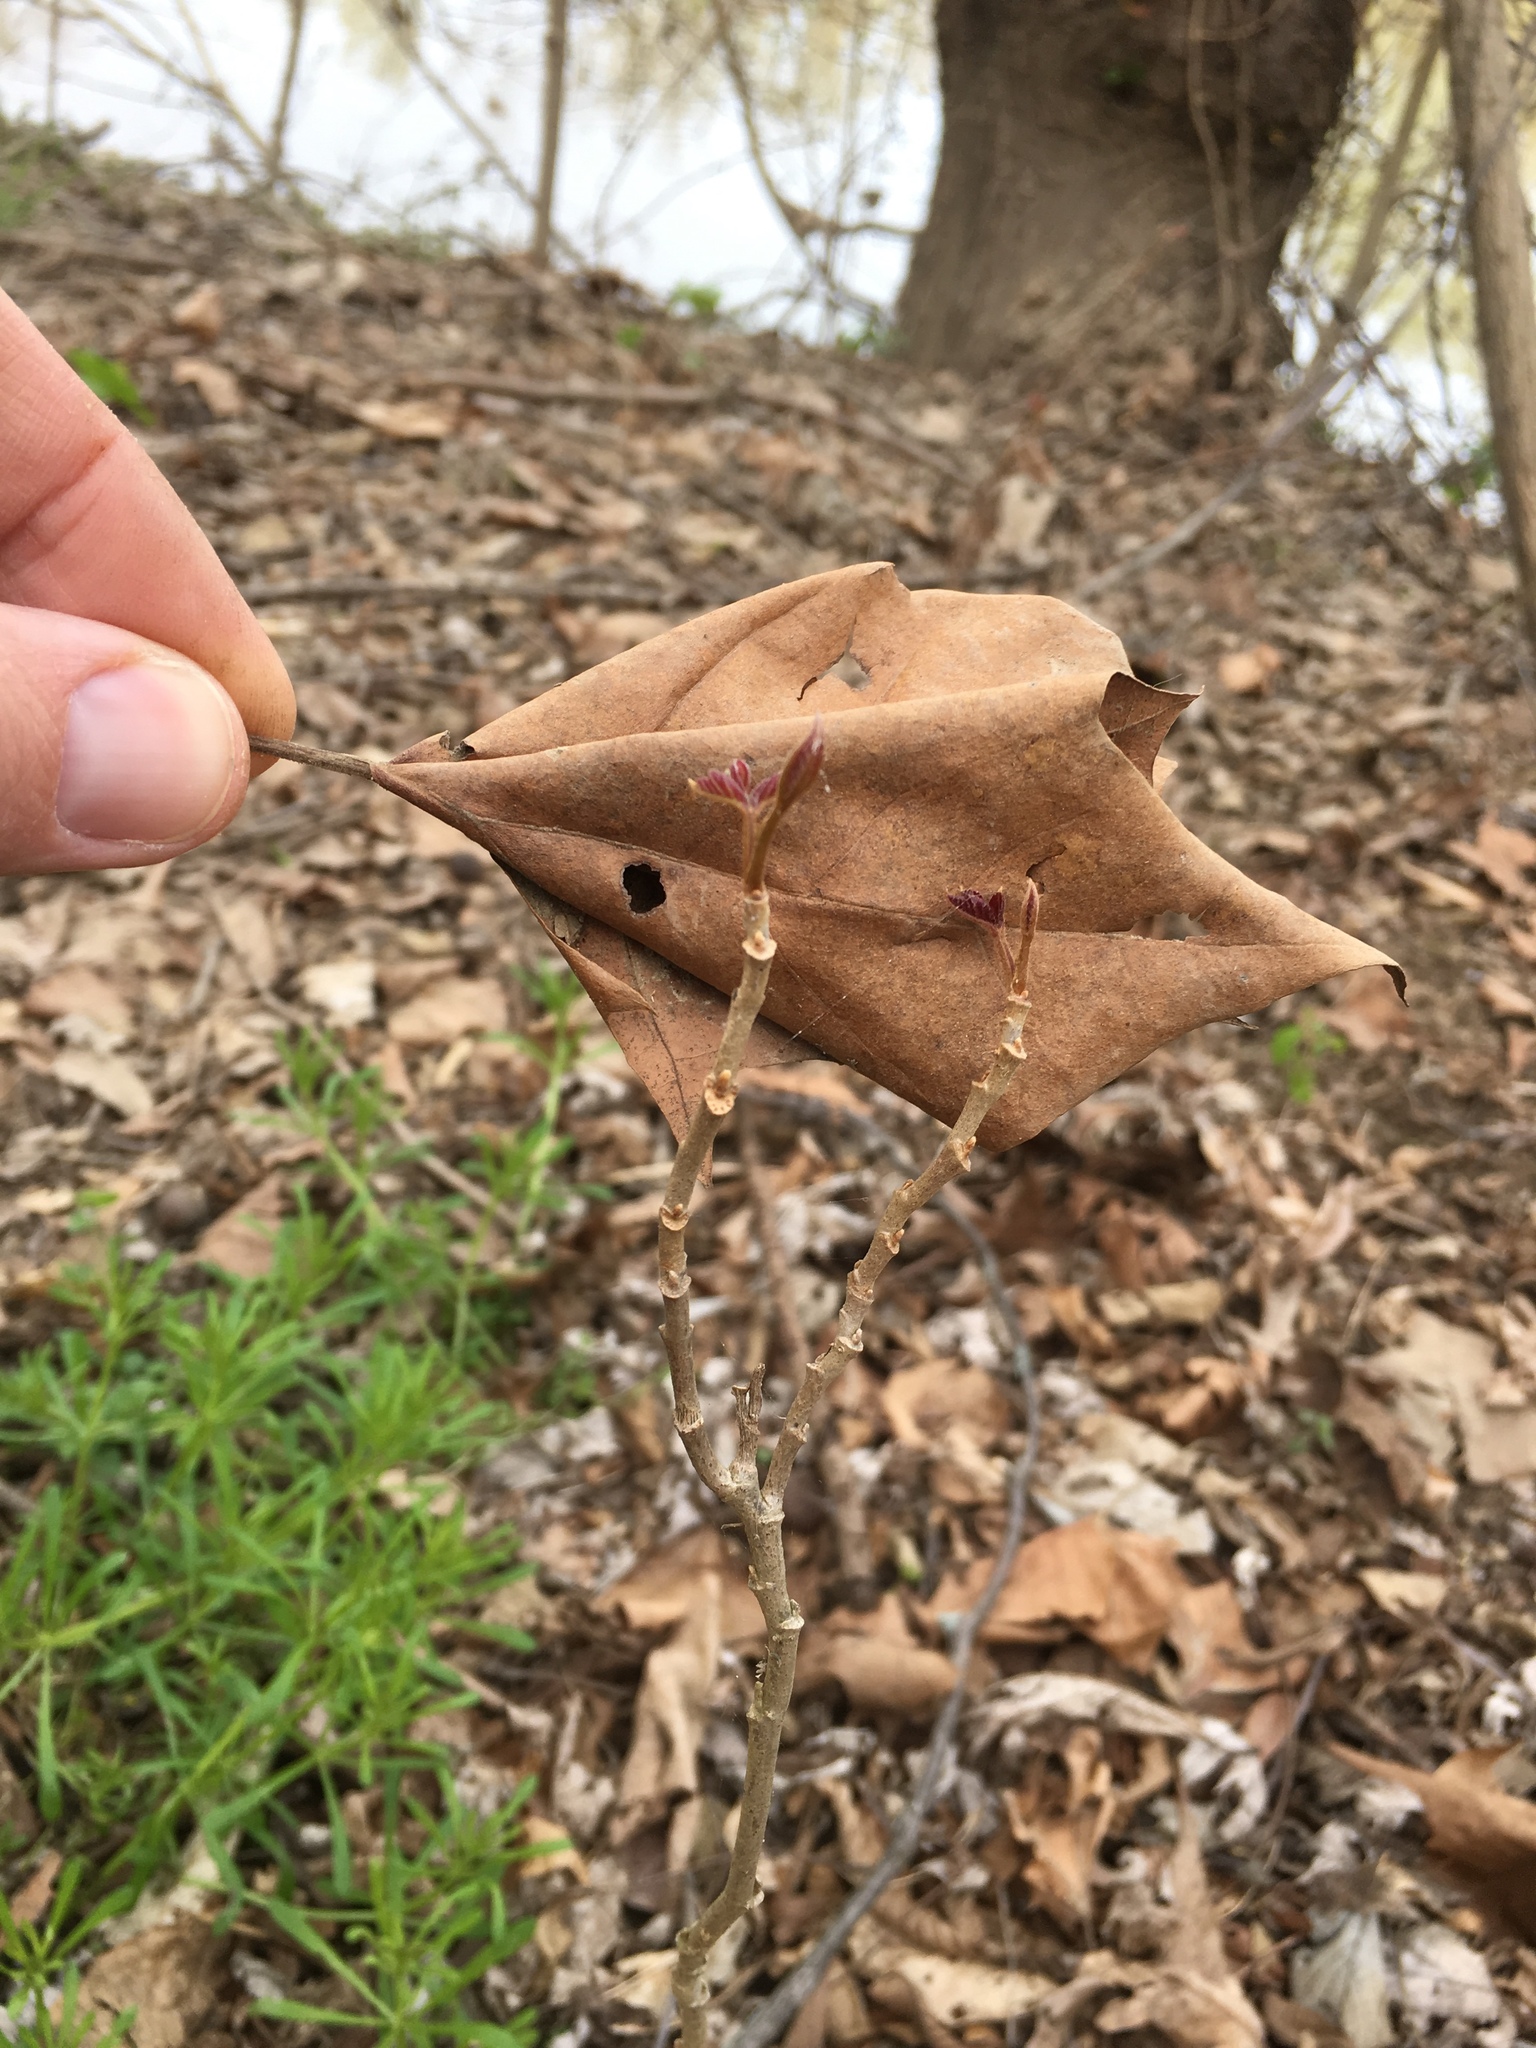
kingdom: Plantae
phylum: Tracheophyta
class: Magnoliopsida
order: Sapindales
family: Anacardiaceae
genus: Toxicodendron
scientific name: Toxicodendron radicans
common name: Poison ivy
